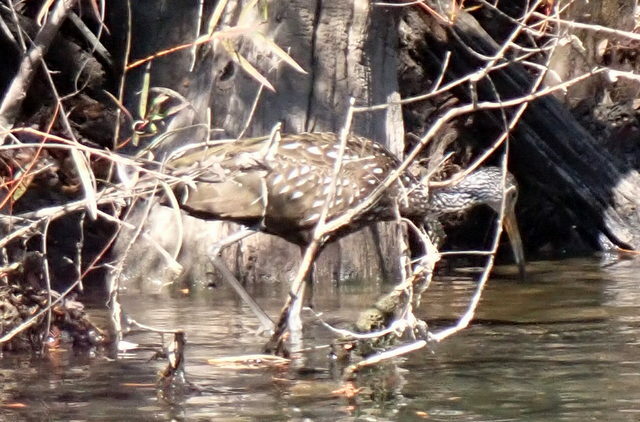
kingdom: Animalia
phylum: Chordata
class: Aves
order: Gruiformes
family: Aramidae
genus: Aramus
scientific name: Aramus guarauna
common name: Limpkin
